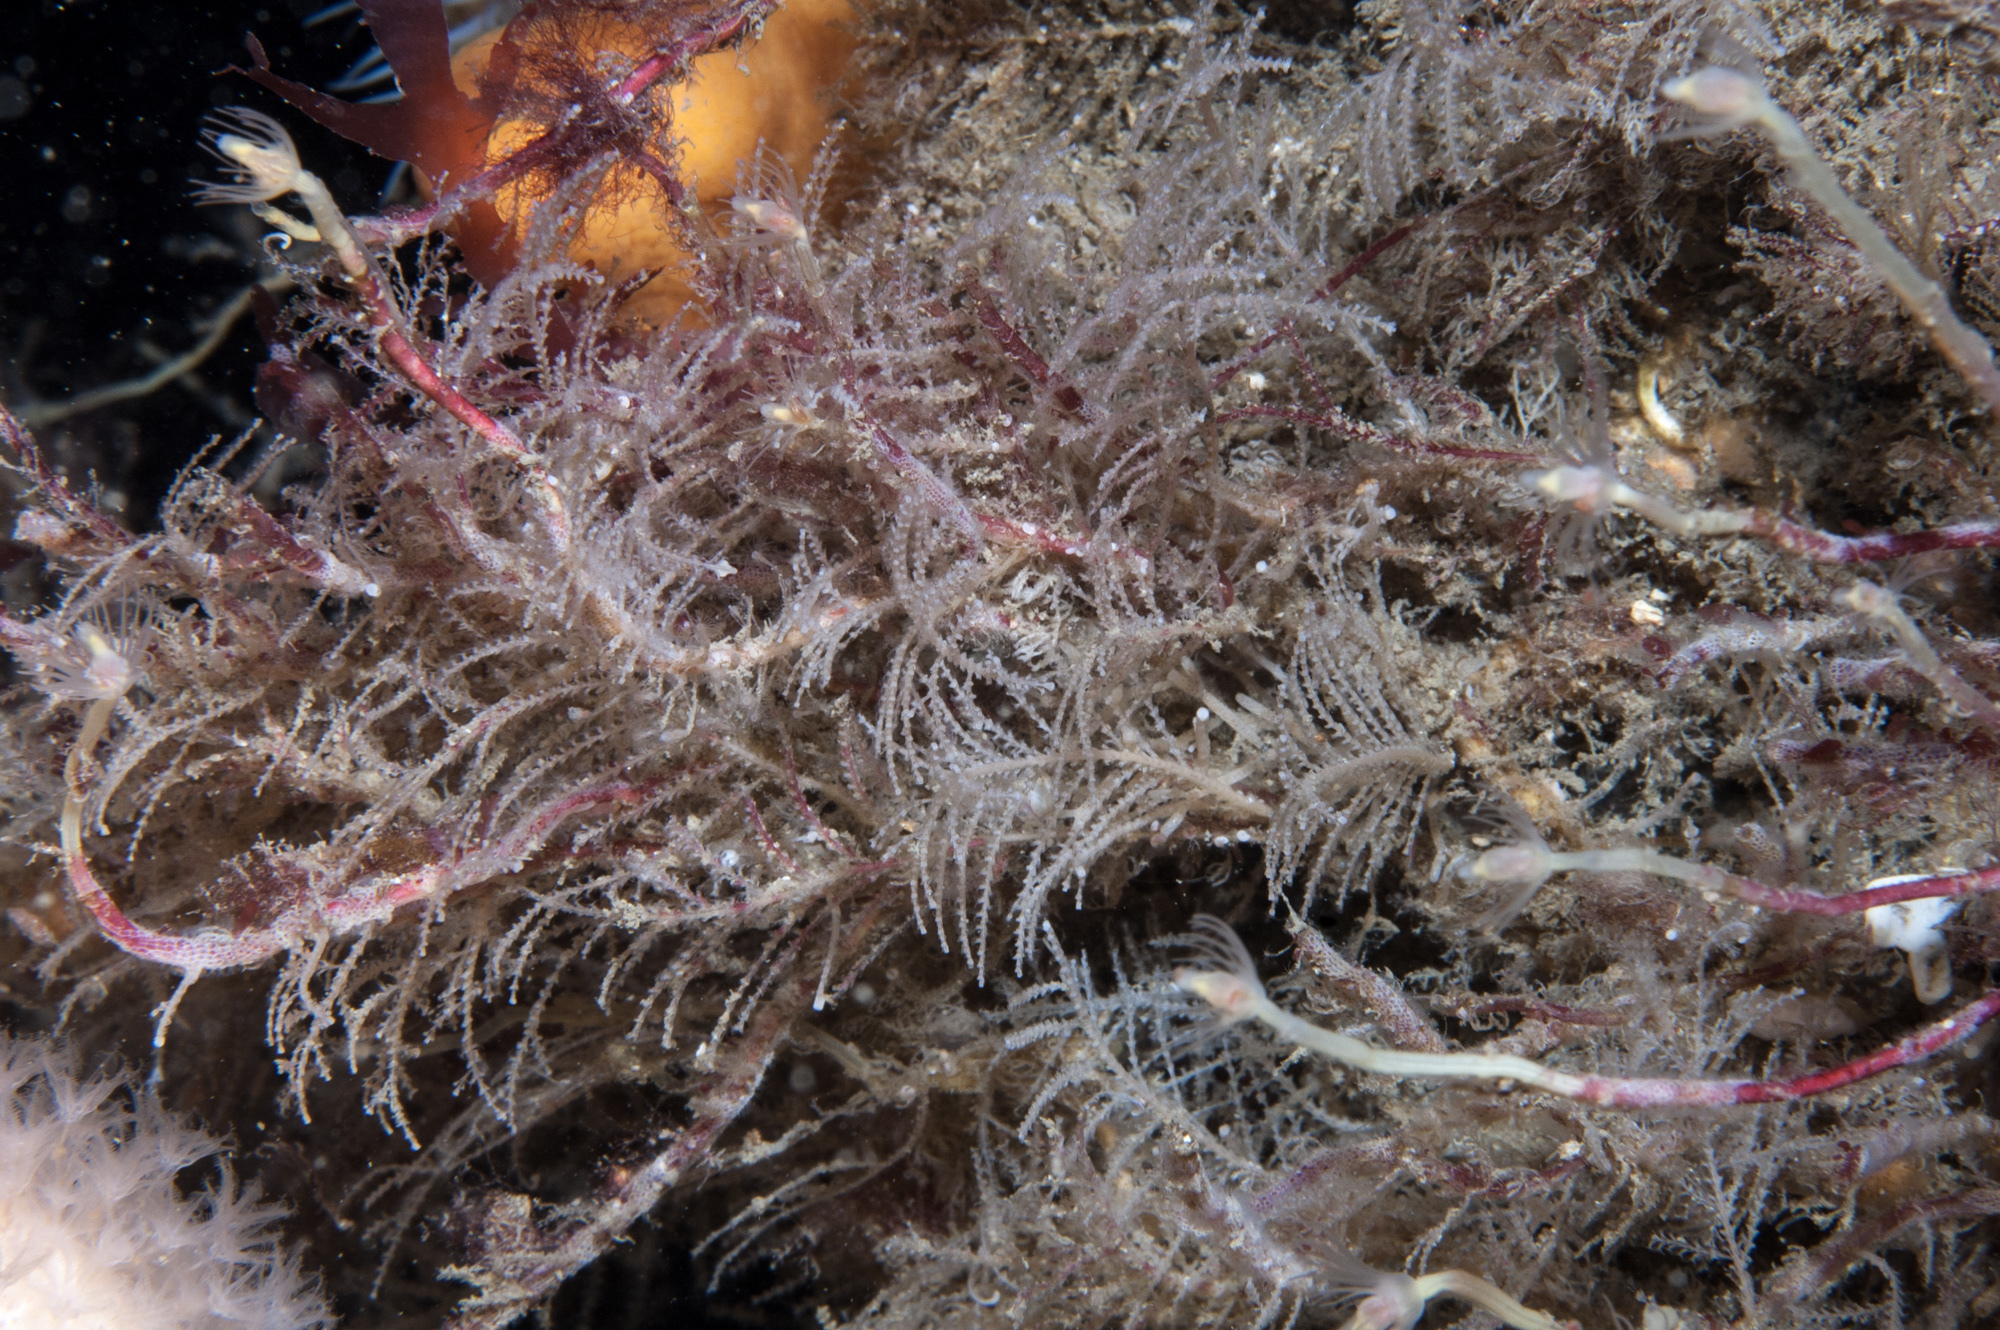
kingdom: Animalia
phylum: Cnidaria
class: Hydrozoa
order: Leptothecata
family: Sertulariidae
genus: Diphasia
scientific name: Diphasia fallax
